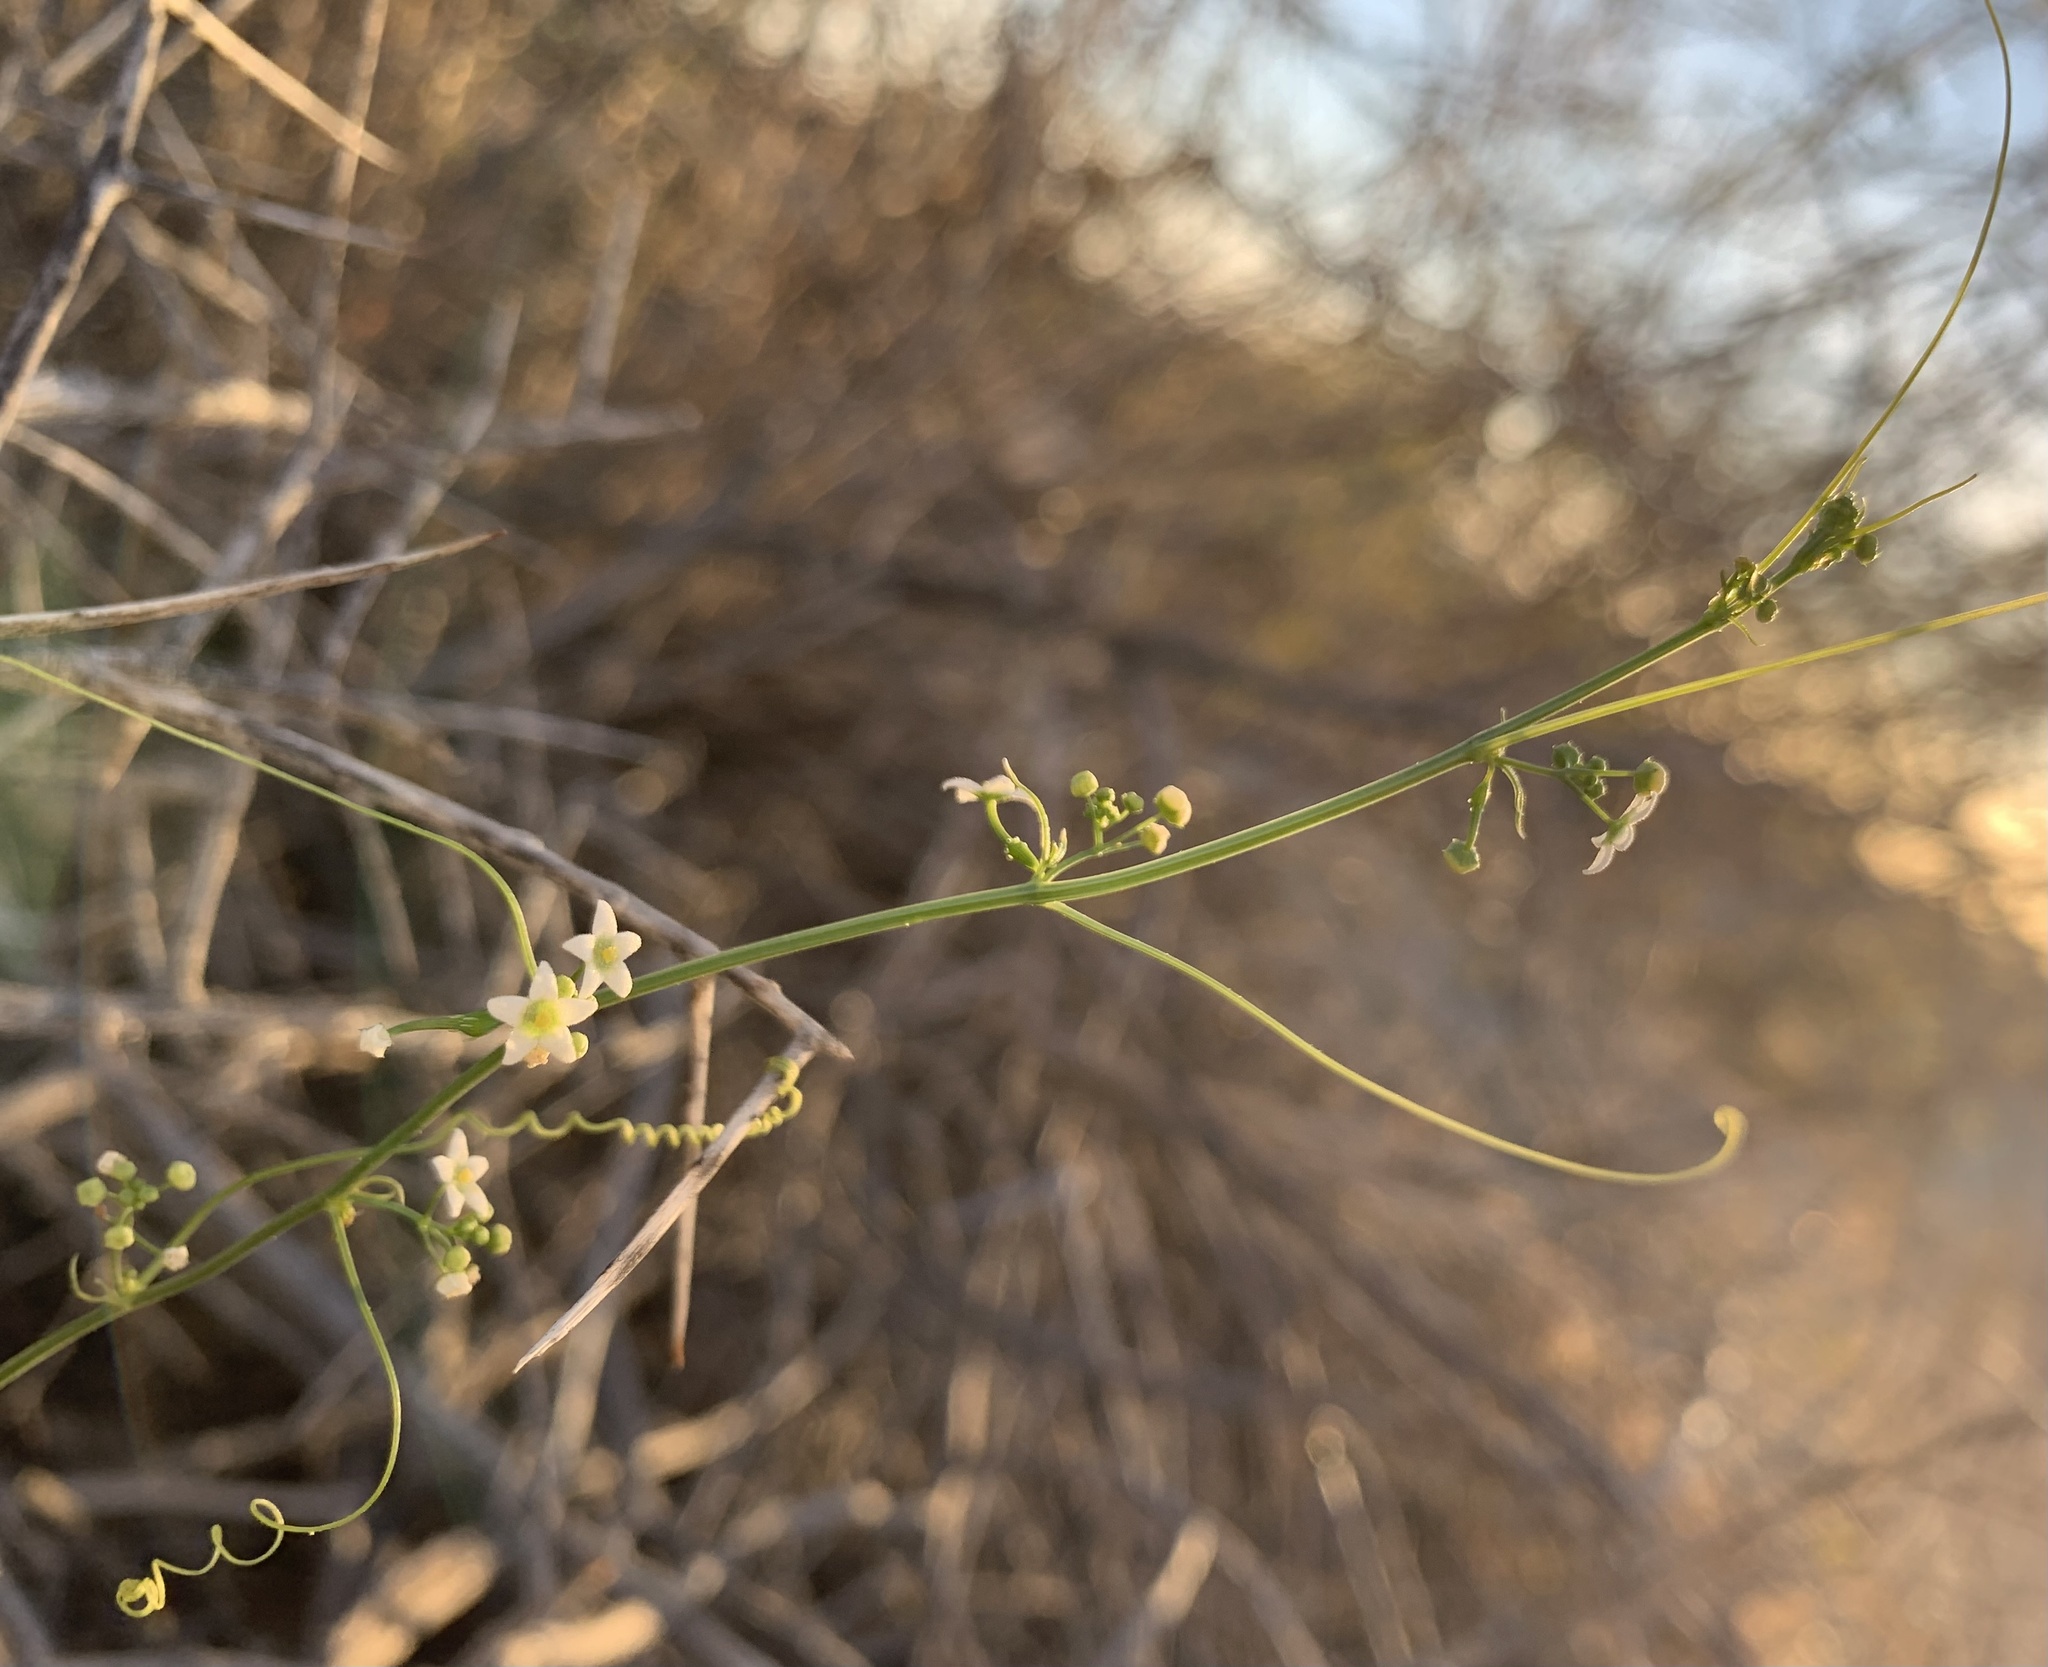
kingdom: Plantae
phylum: Tracheophyta
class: Magnoliopsida
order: Cucurbitales
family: Cucurbitaceae
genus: Echinopepon
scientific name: Echinopepon bigelovii
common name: Desert starvine
